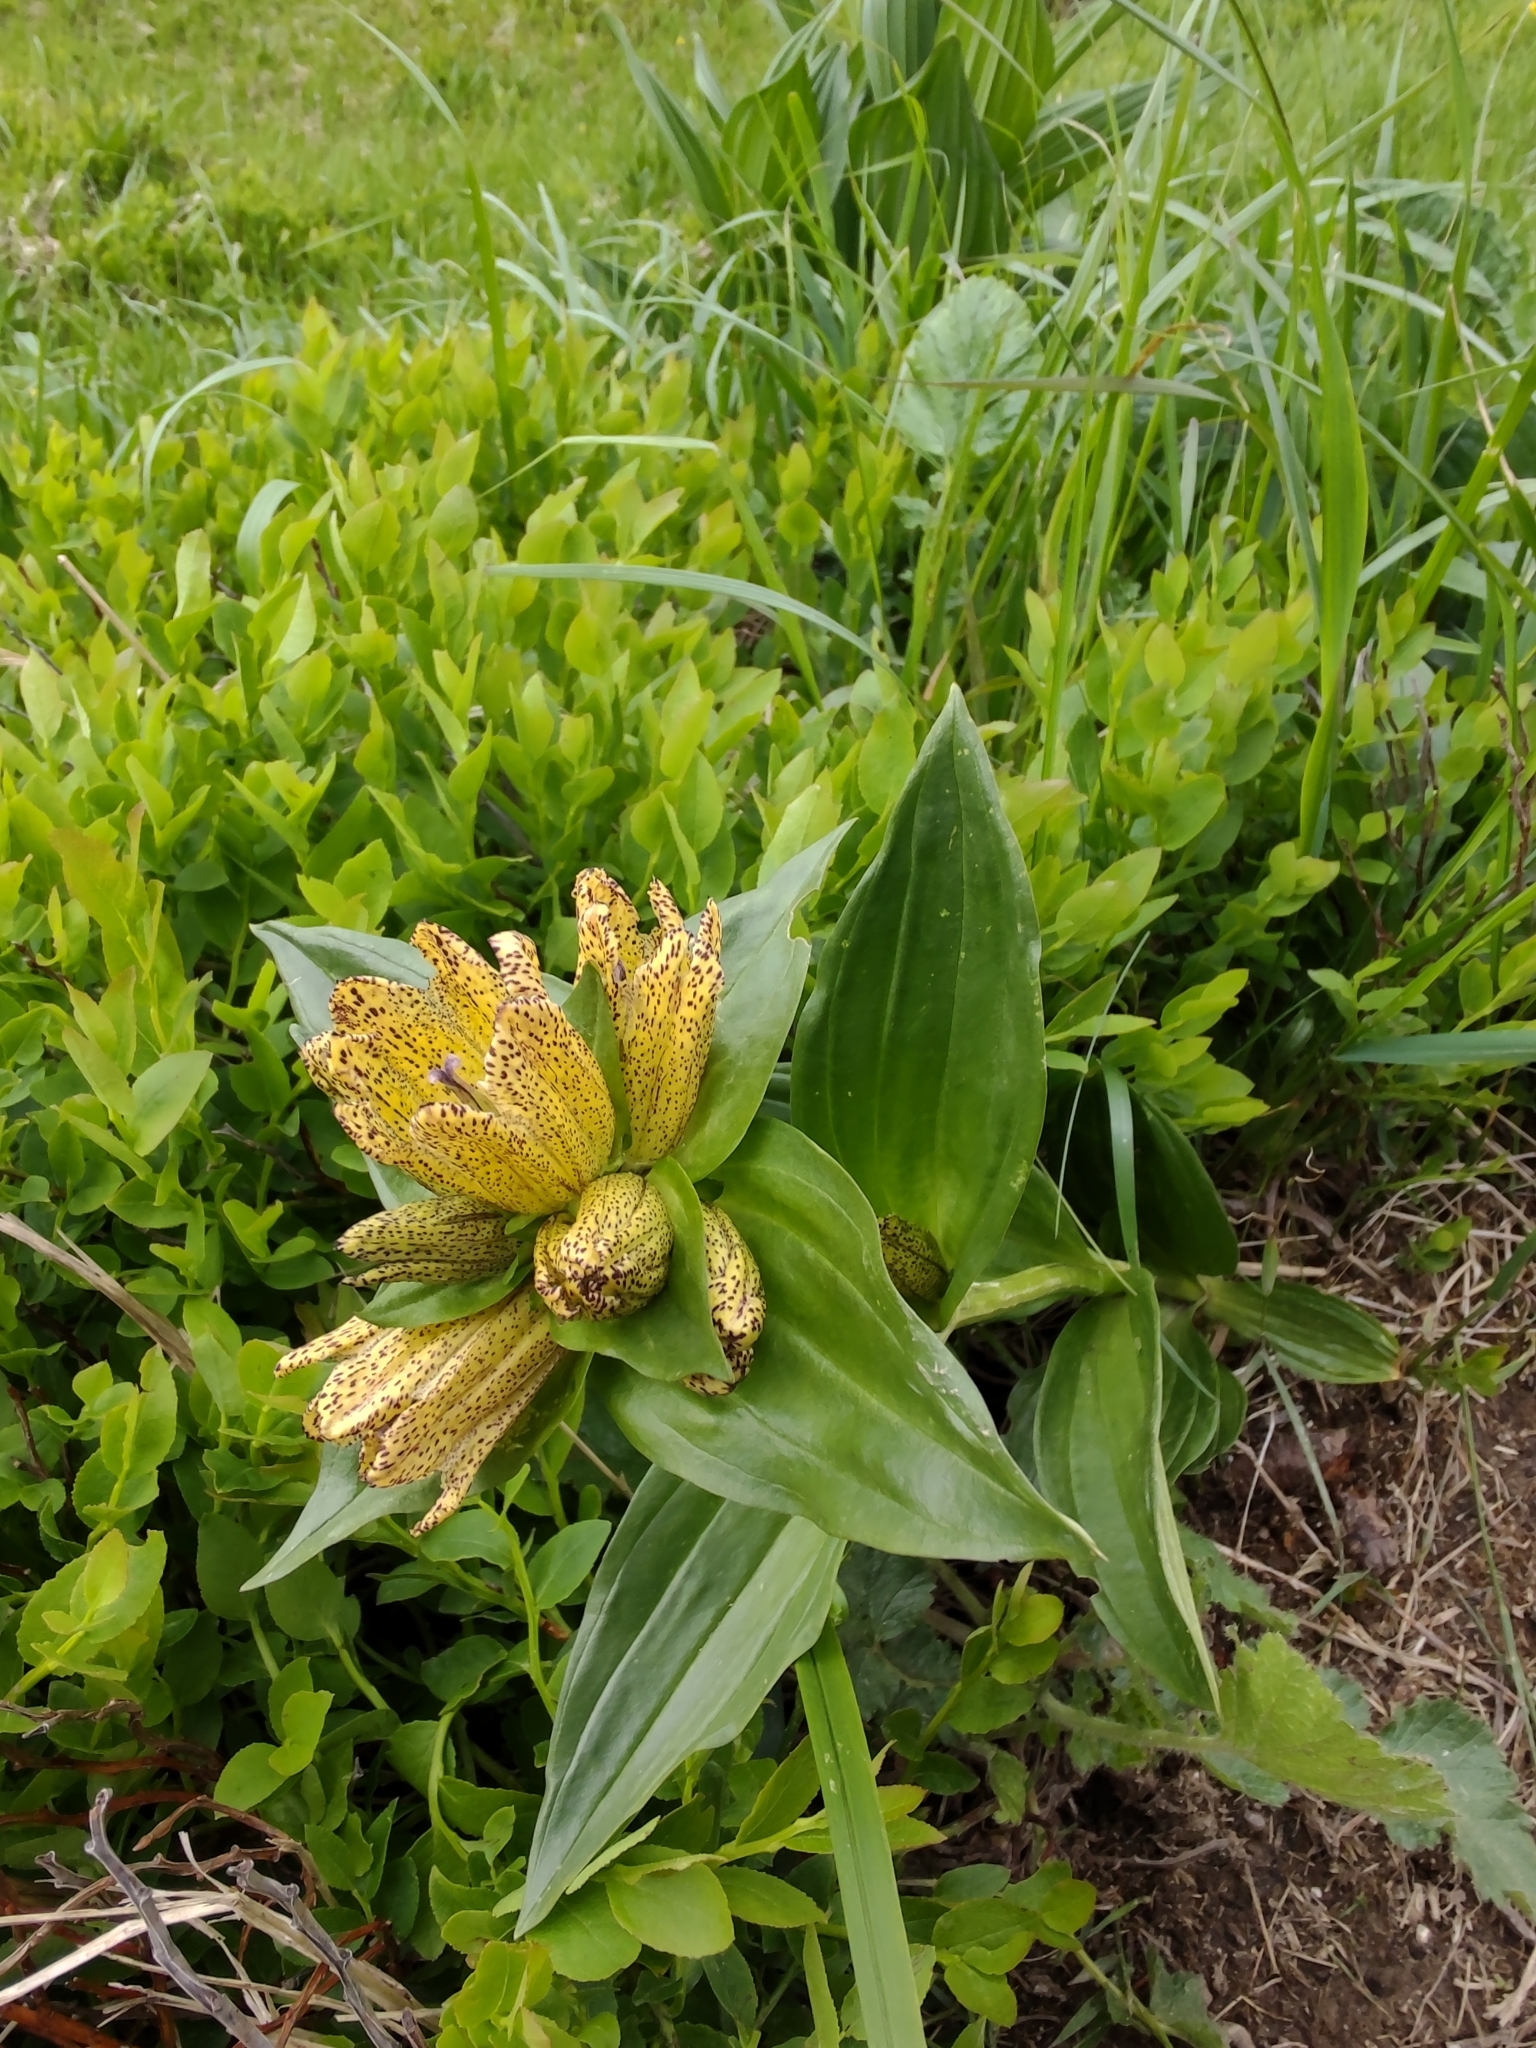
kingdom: Plantae
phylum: Tracheophyta
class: Magnoliopsida
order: Gentianales
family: Gentianaceae
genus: Gentiana
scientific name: Gentiana punctata
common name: Spotted gentian
